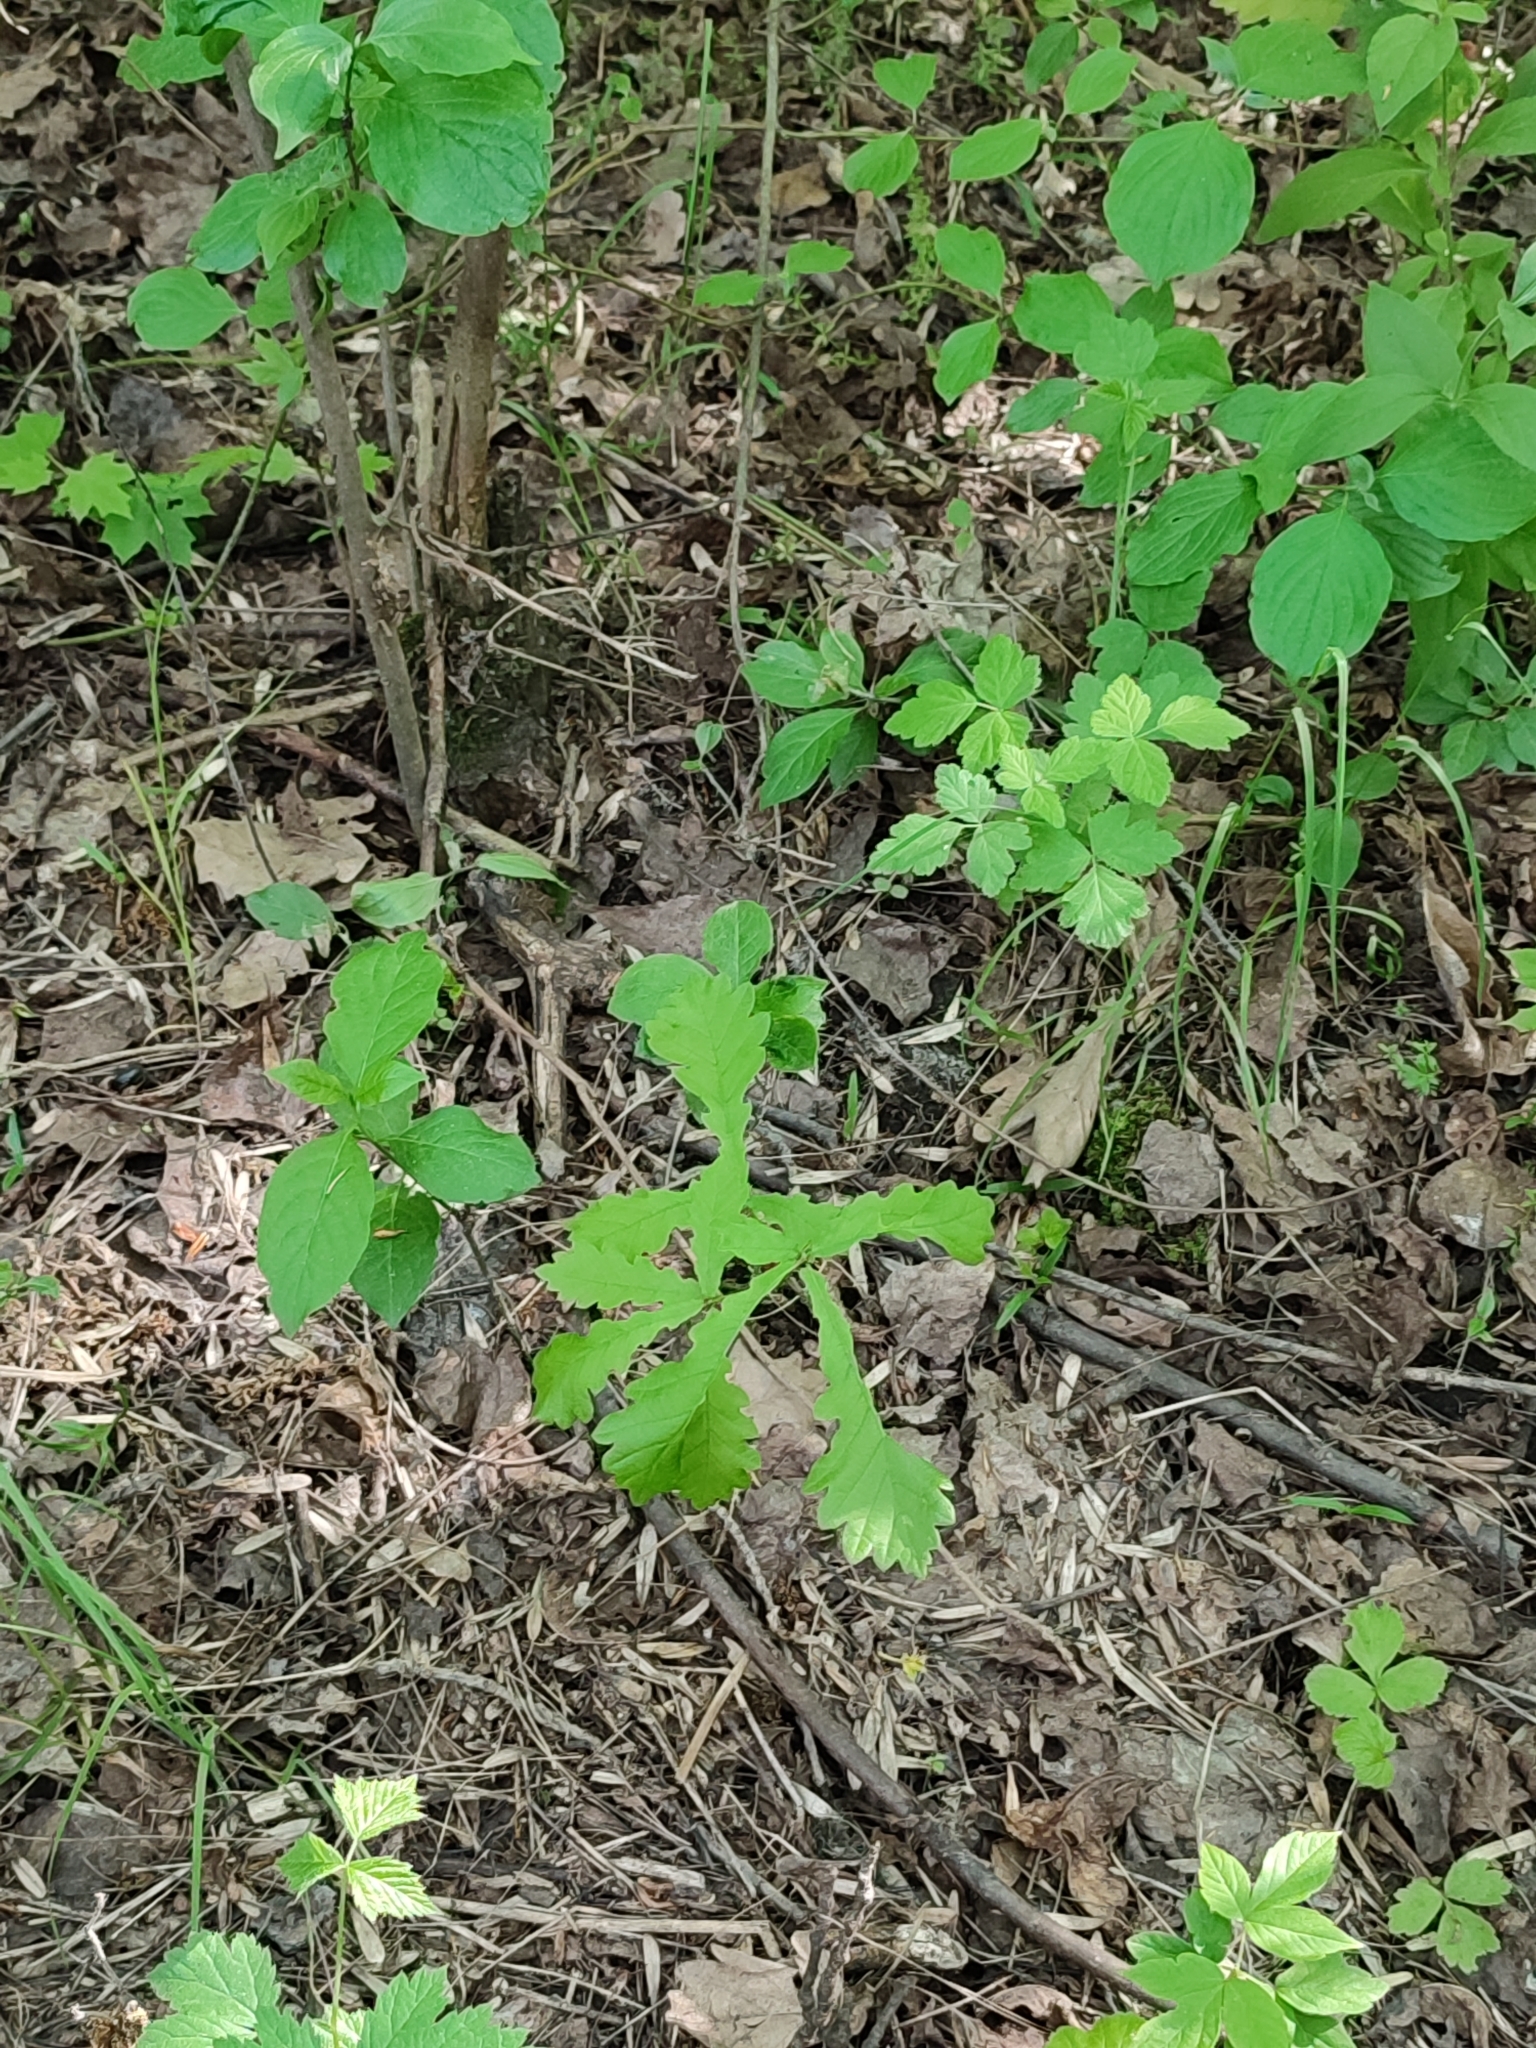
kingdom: Plantae
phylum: Tracheophyta
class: Magnoliopsida
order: Fagales
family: Fagaceae
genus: Quercus
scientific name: Quercus robur
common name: Pedunculate oak
